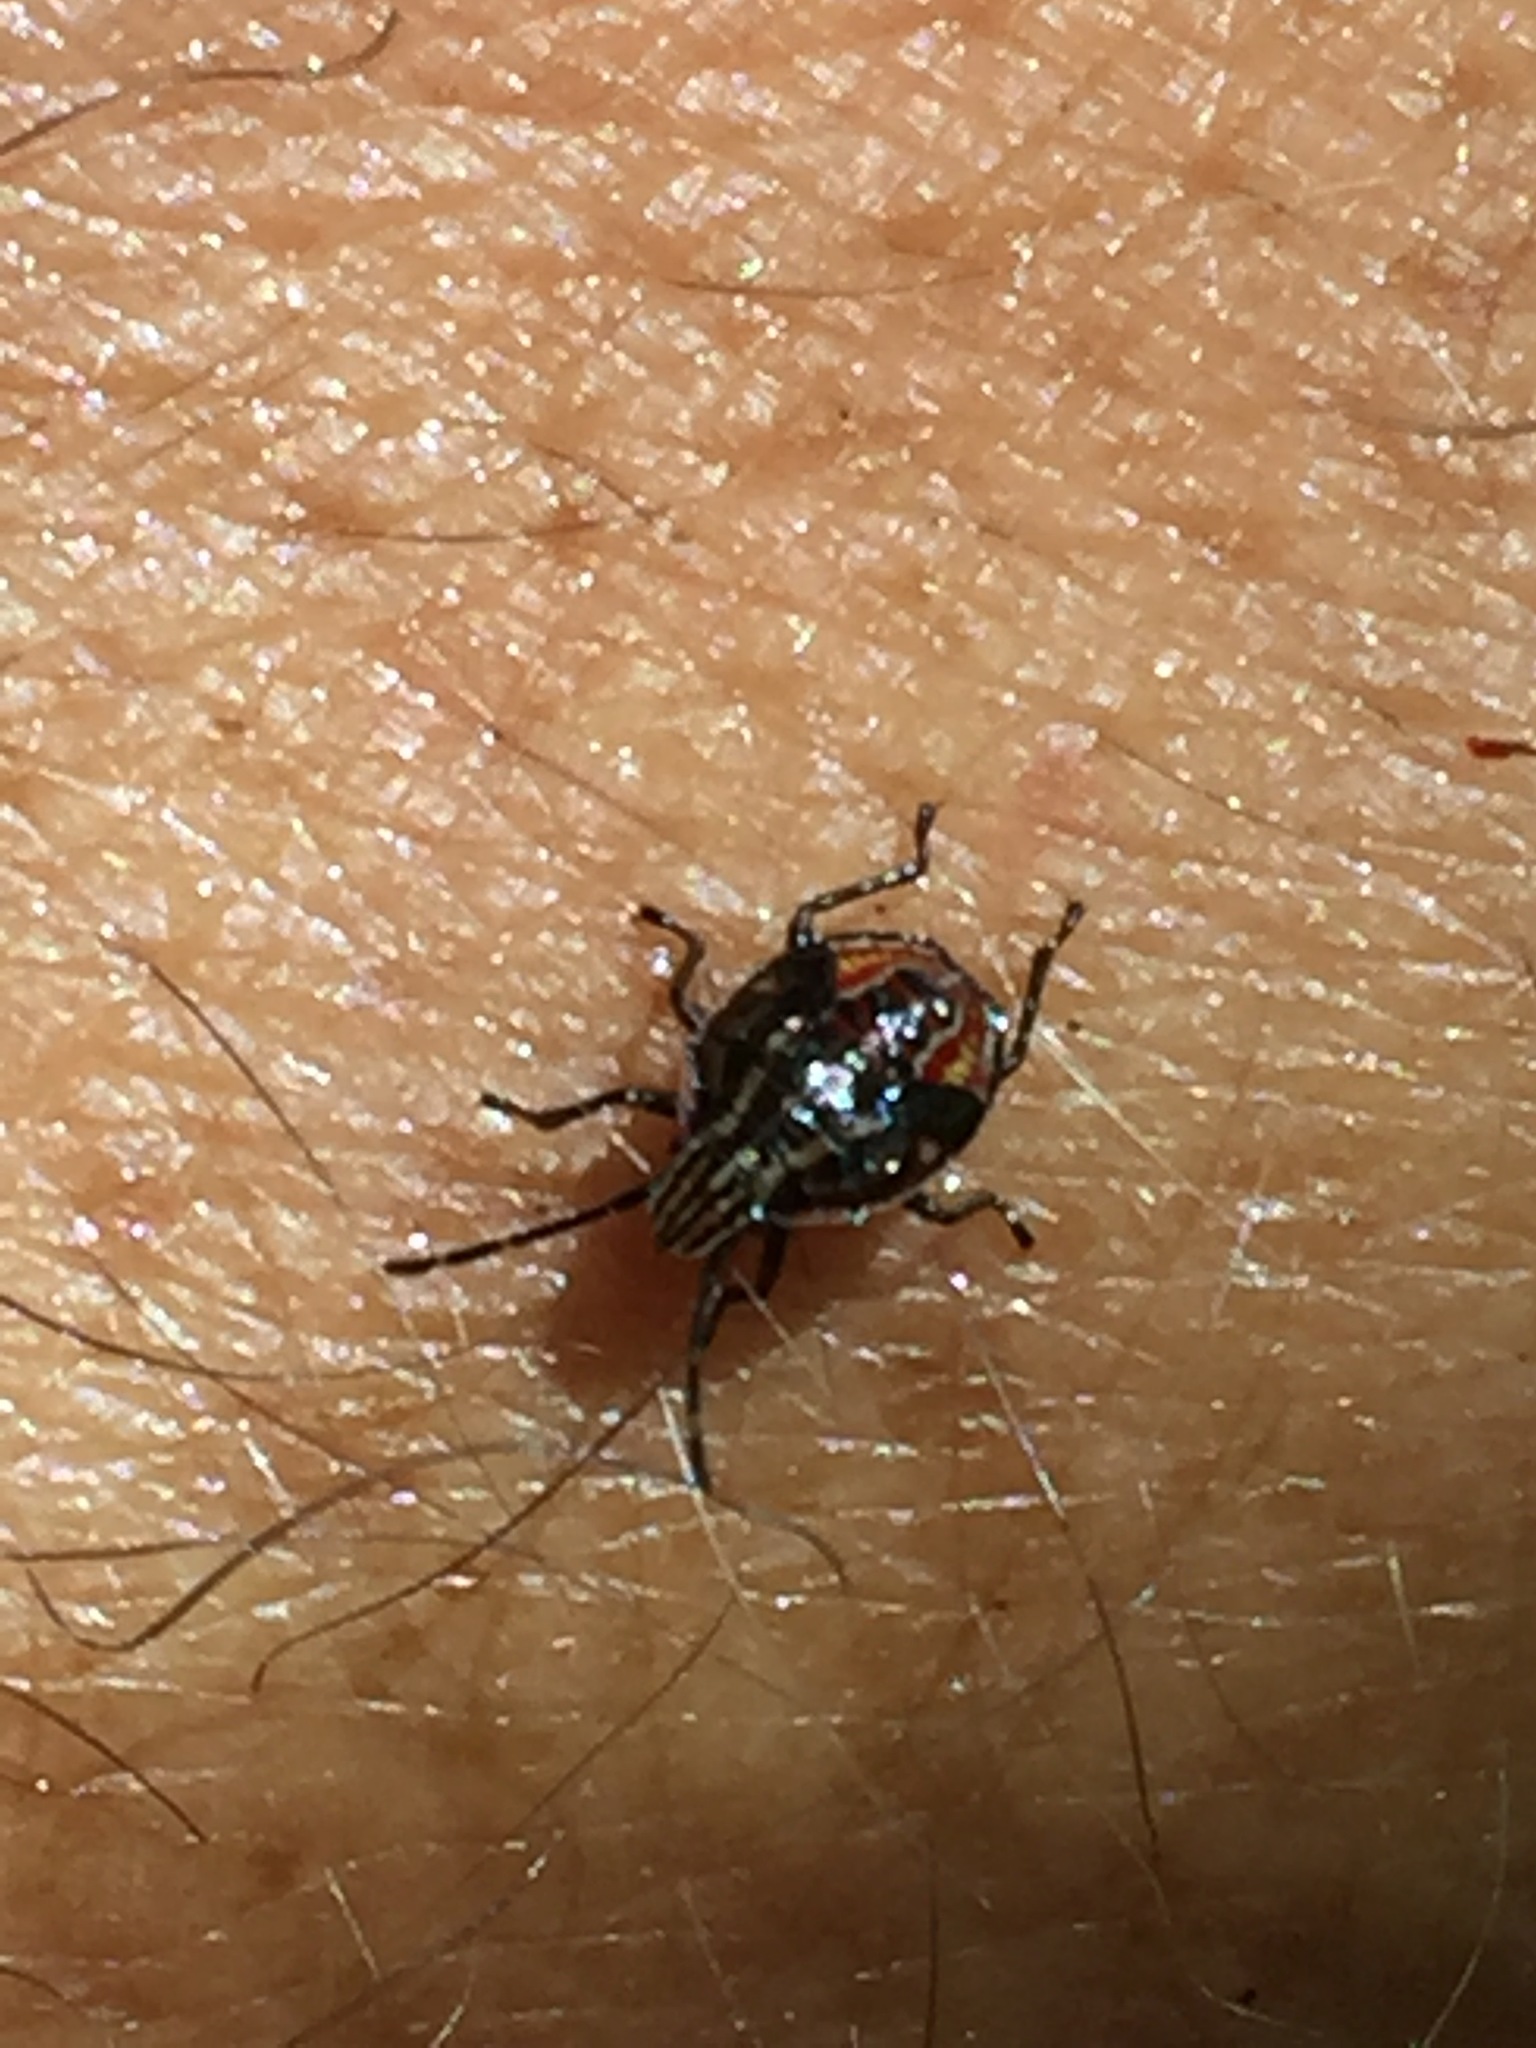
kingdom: Animalia
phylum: Arthropoda
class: Insecta
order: Hemiptera
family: Acanthosomatidae
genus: Elasmucha
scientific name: Elasmucha lateralis
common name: Shield bug
